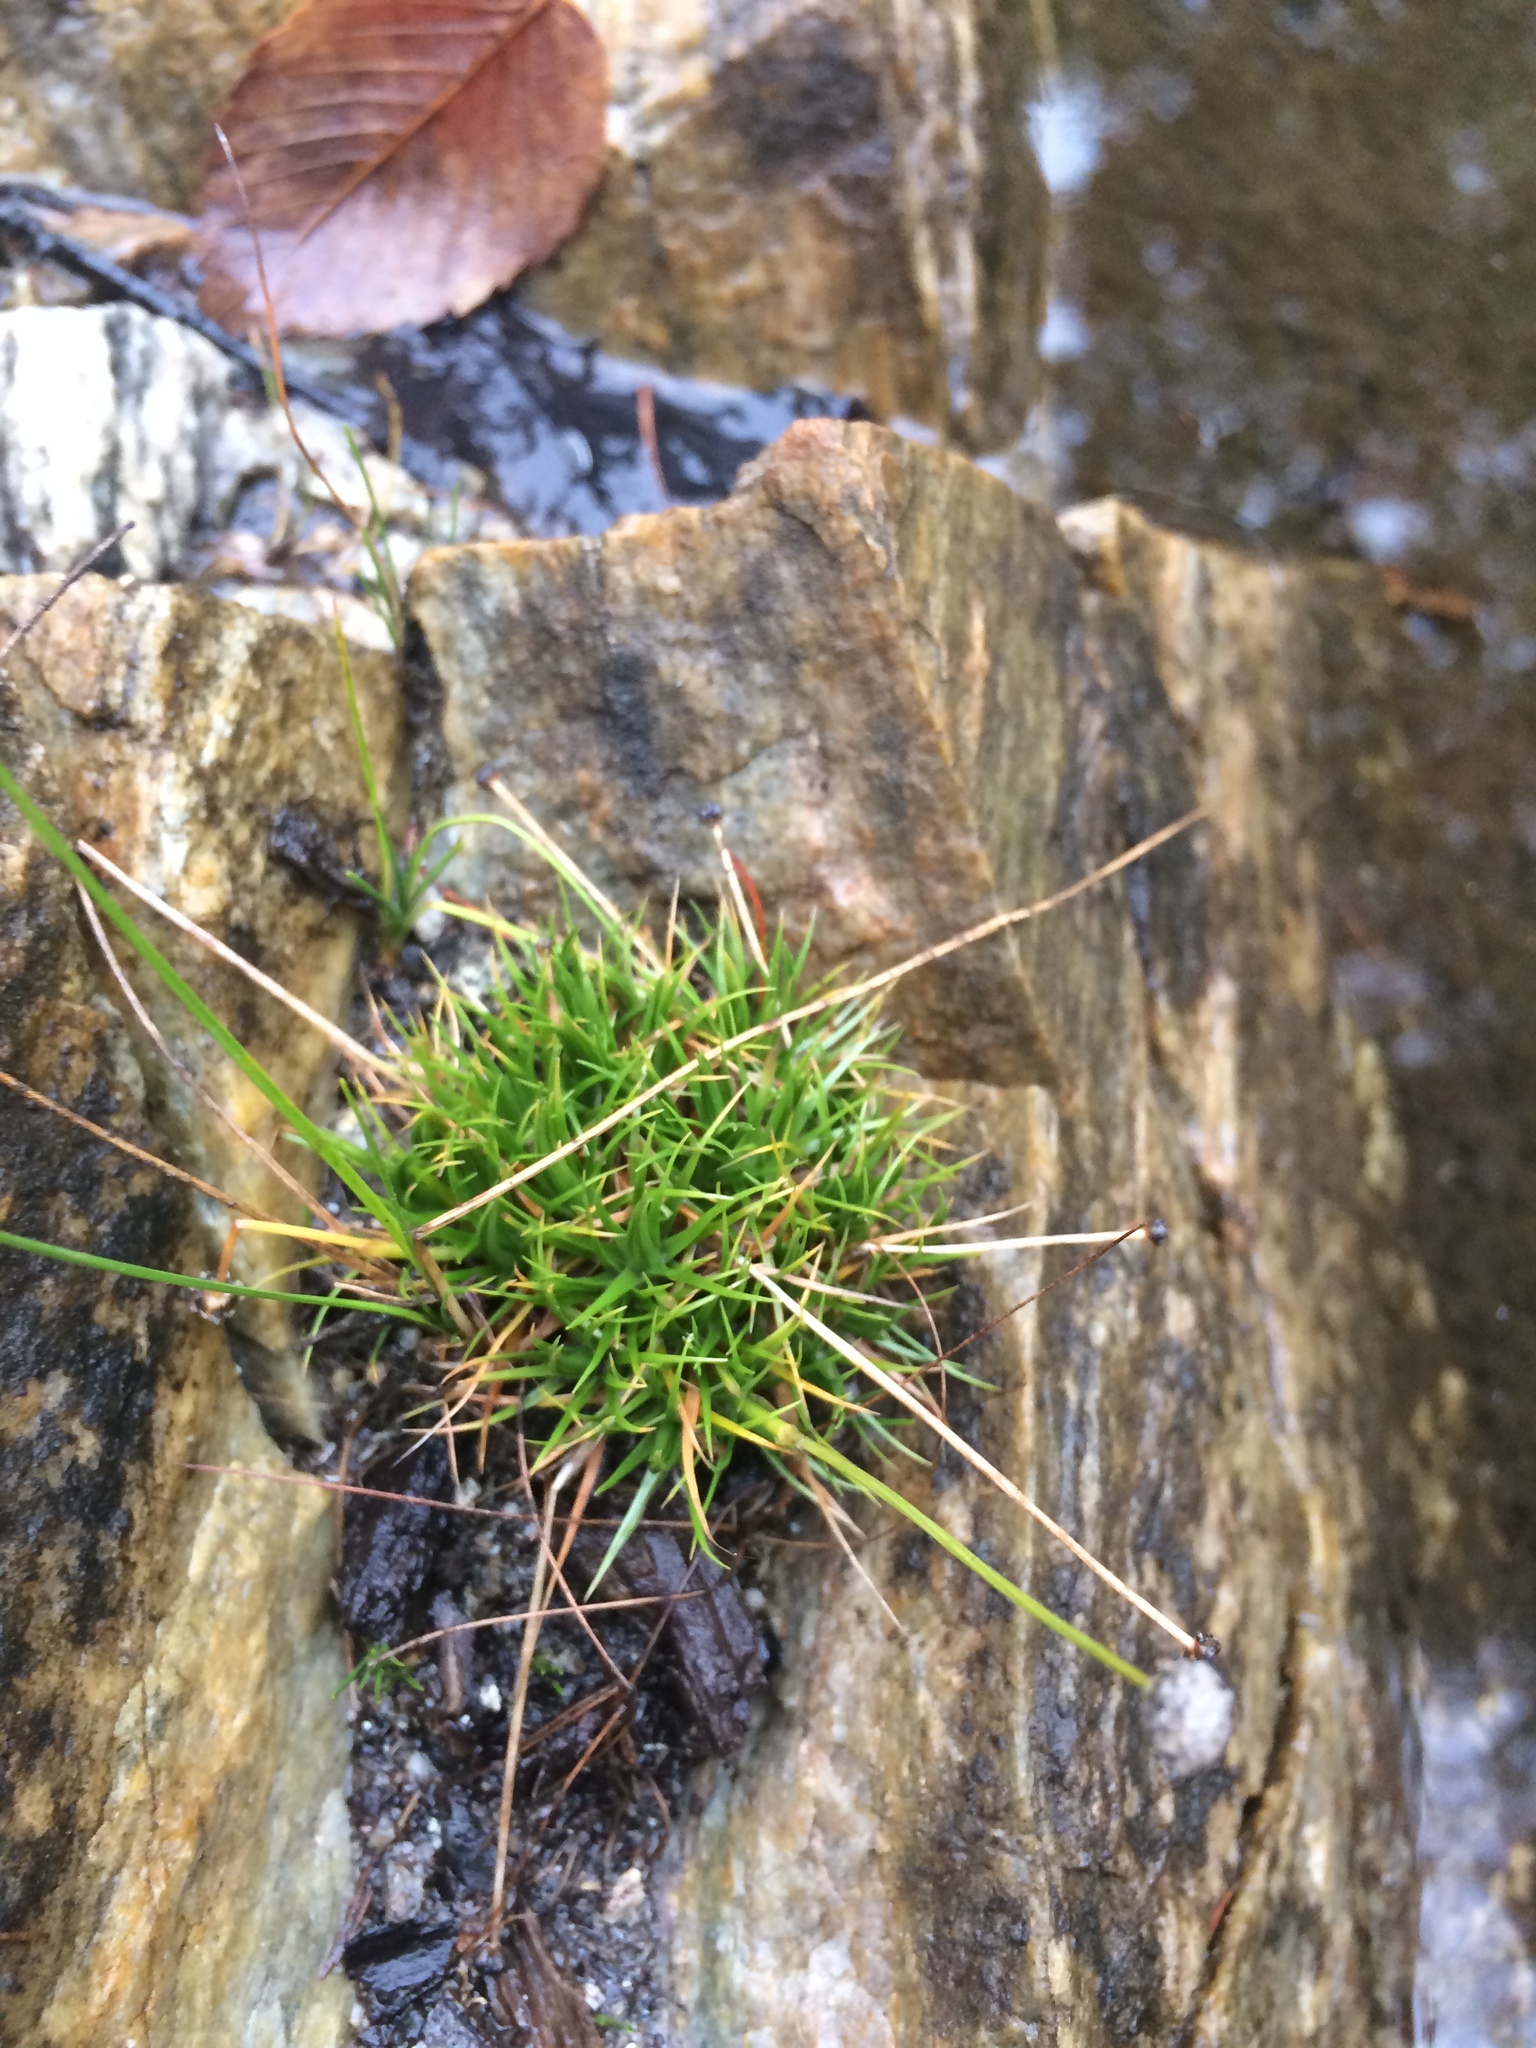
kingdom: Plantae
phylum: Tracheophyta
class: Liliopsida
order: Poales
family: Eriocaulaceae
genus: Eriocaulon
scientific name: Eriocaulon aquaticum
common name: Pipewort
